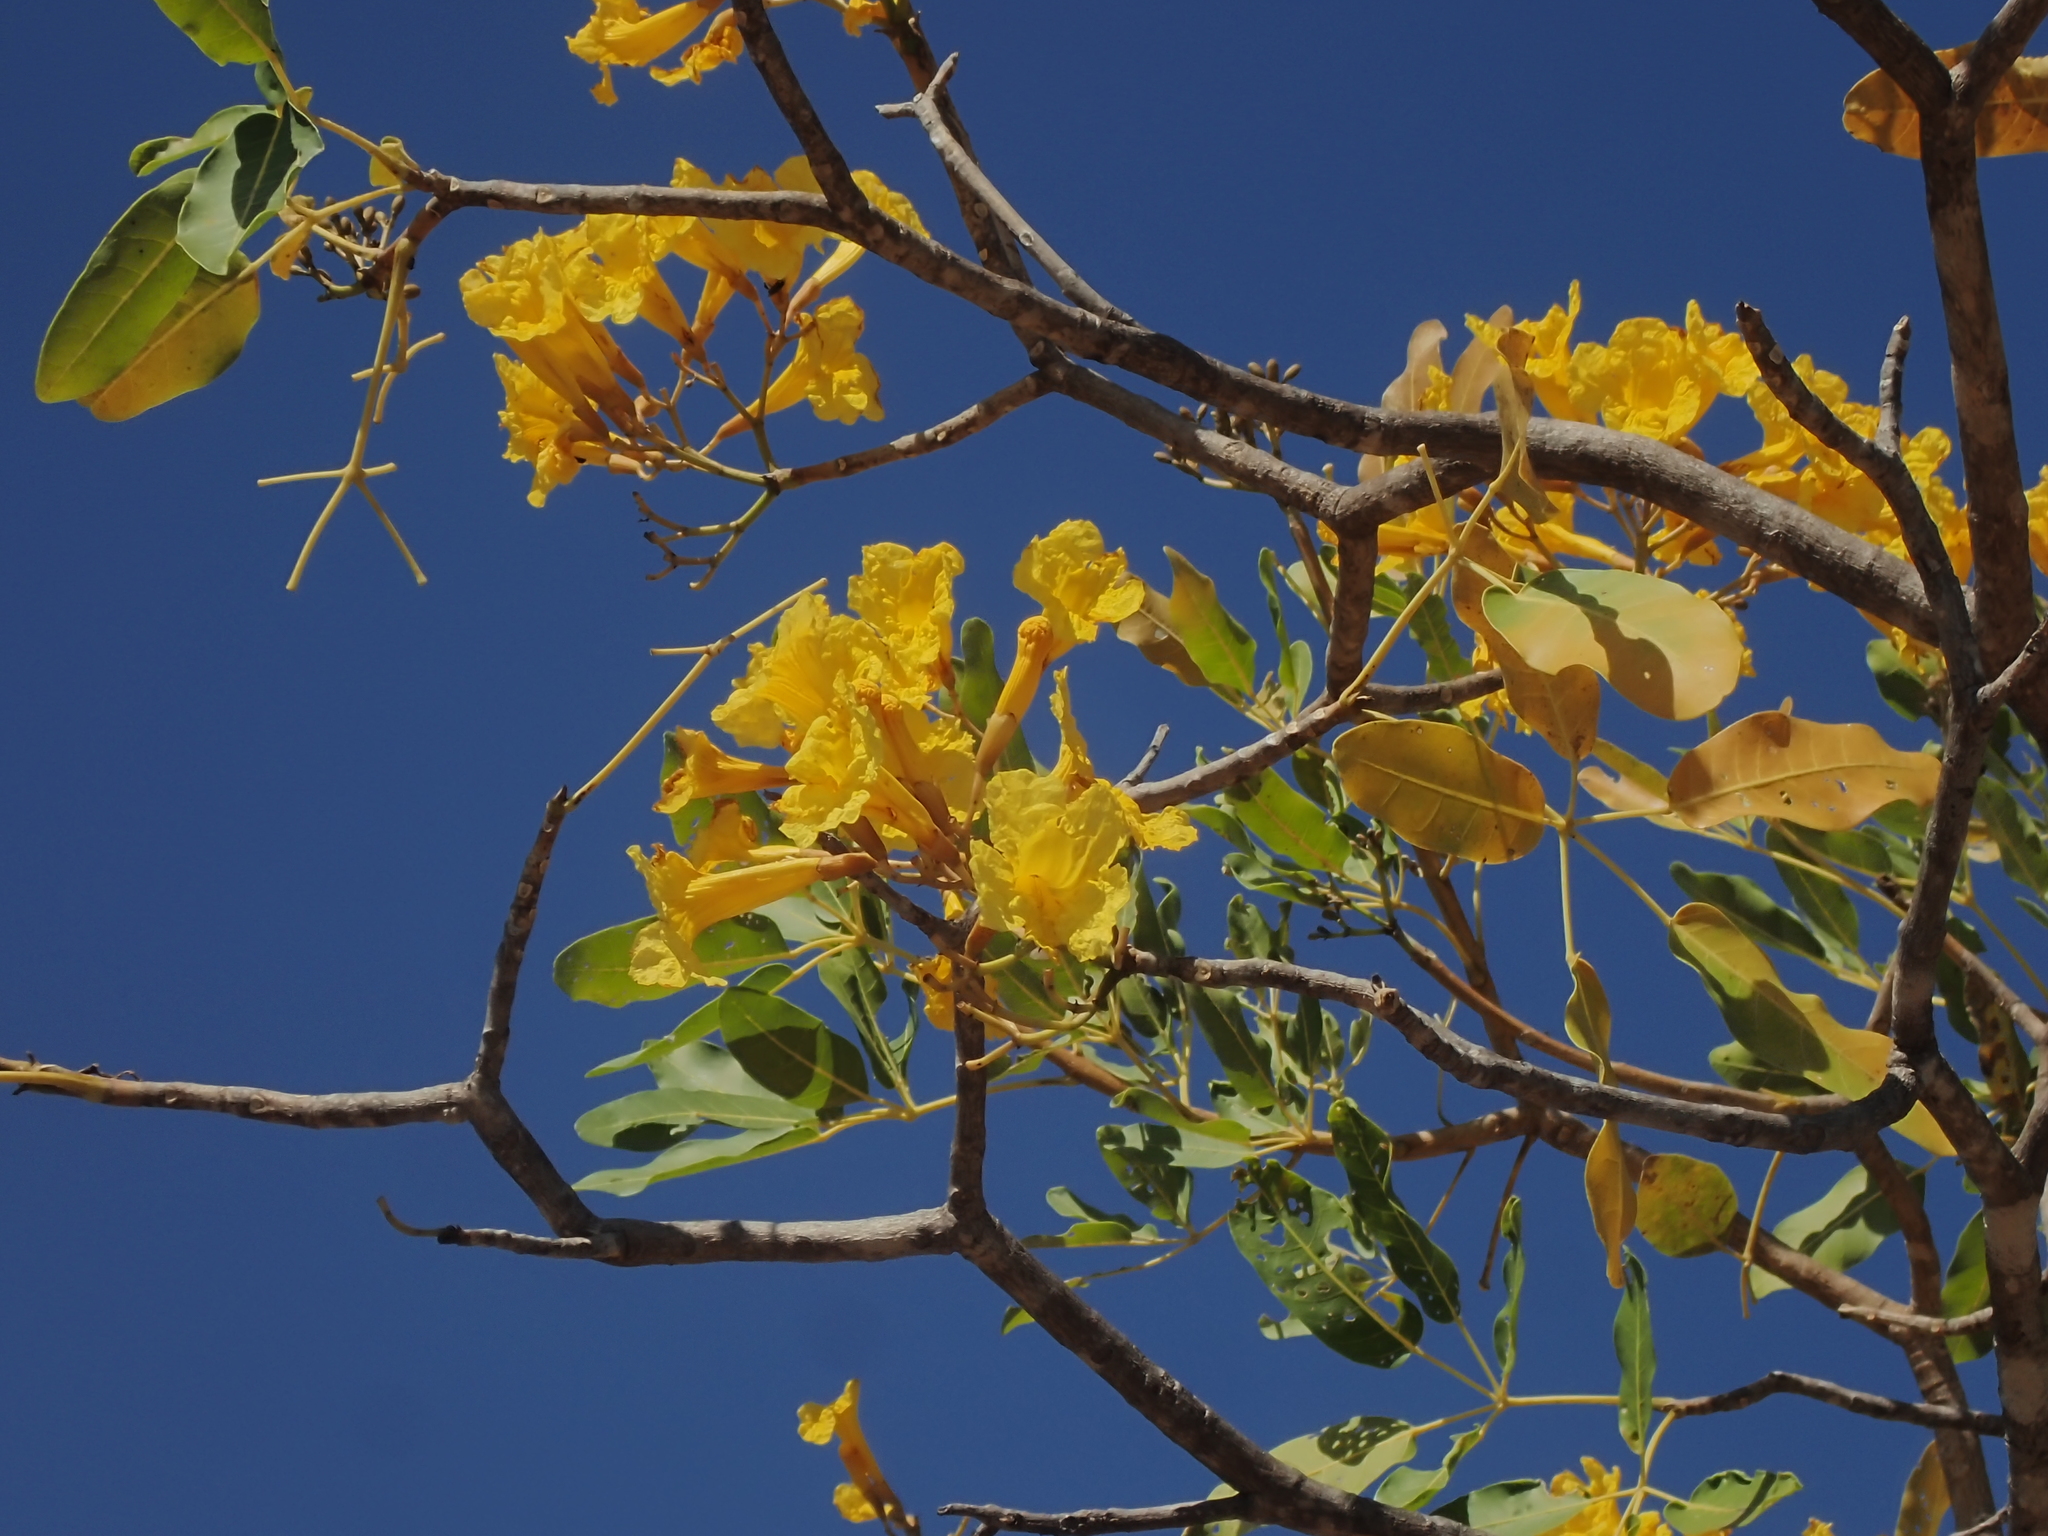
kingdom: Plantae
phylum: Tracheophyta
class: Magnoliopsida
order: Lamiales
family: Bignoniaceae
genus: Tabebuia
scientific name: Tabebuia aurea
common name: Caribbean trumpet-tree
